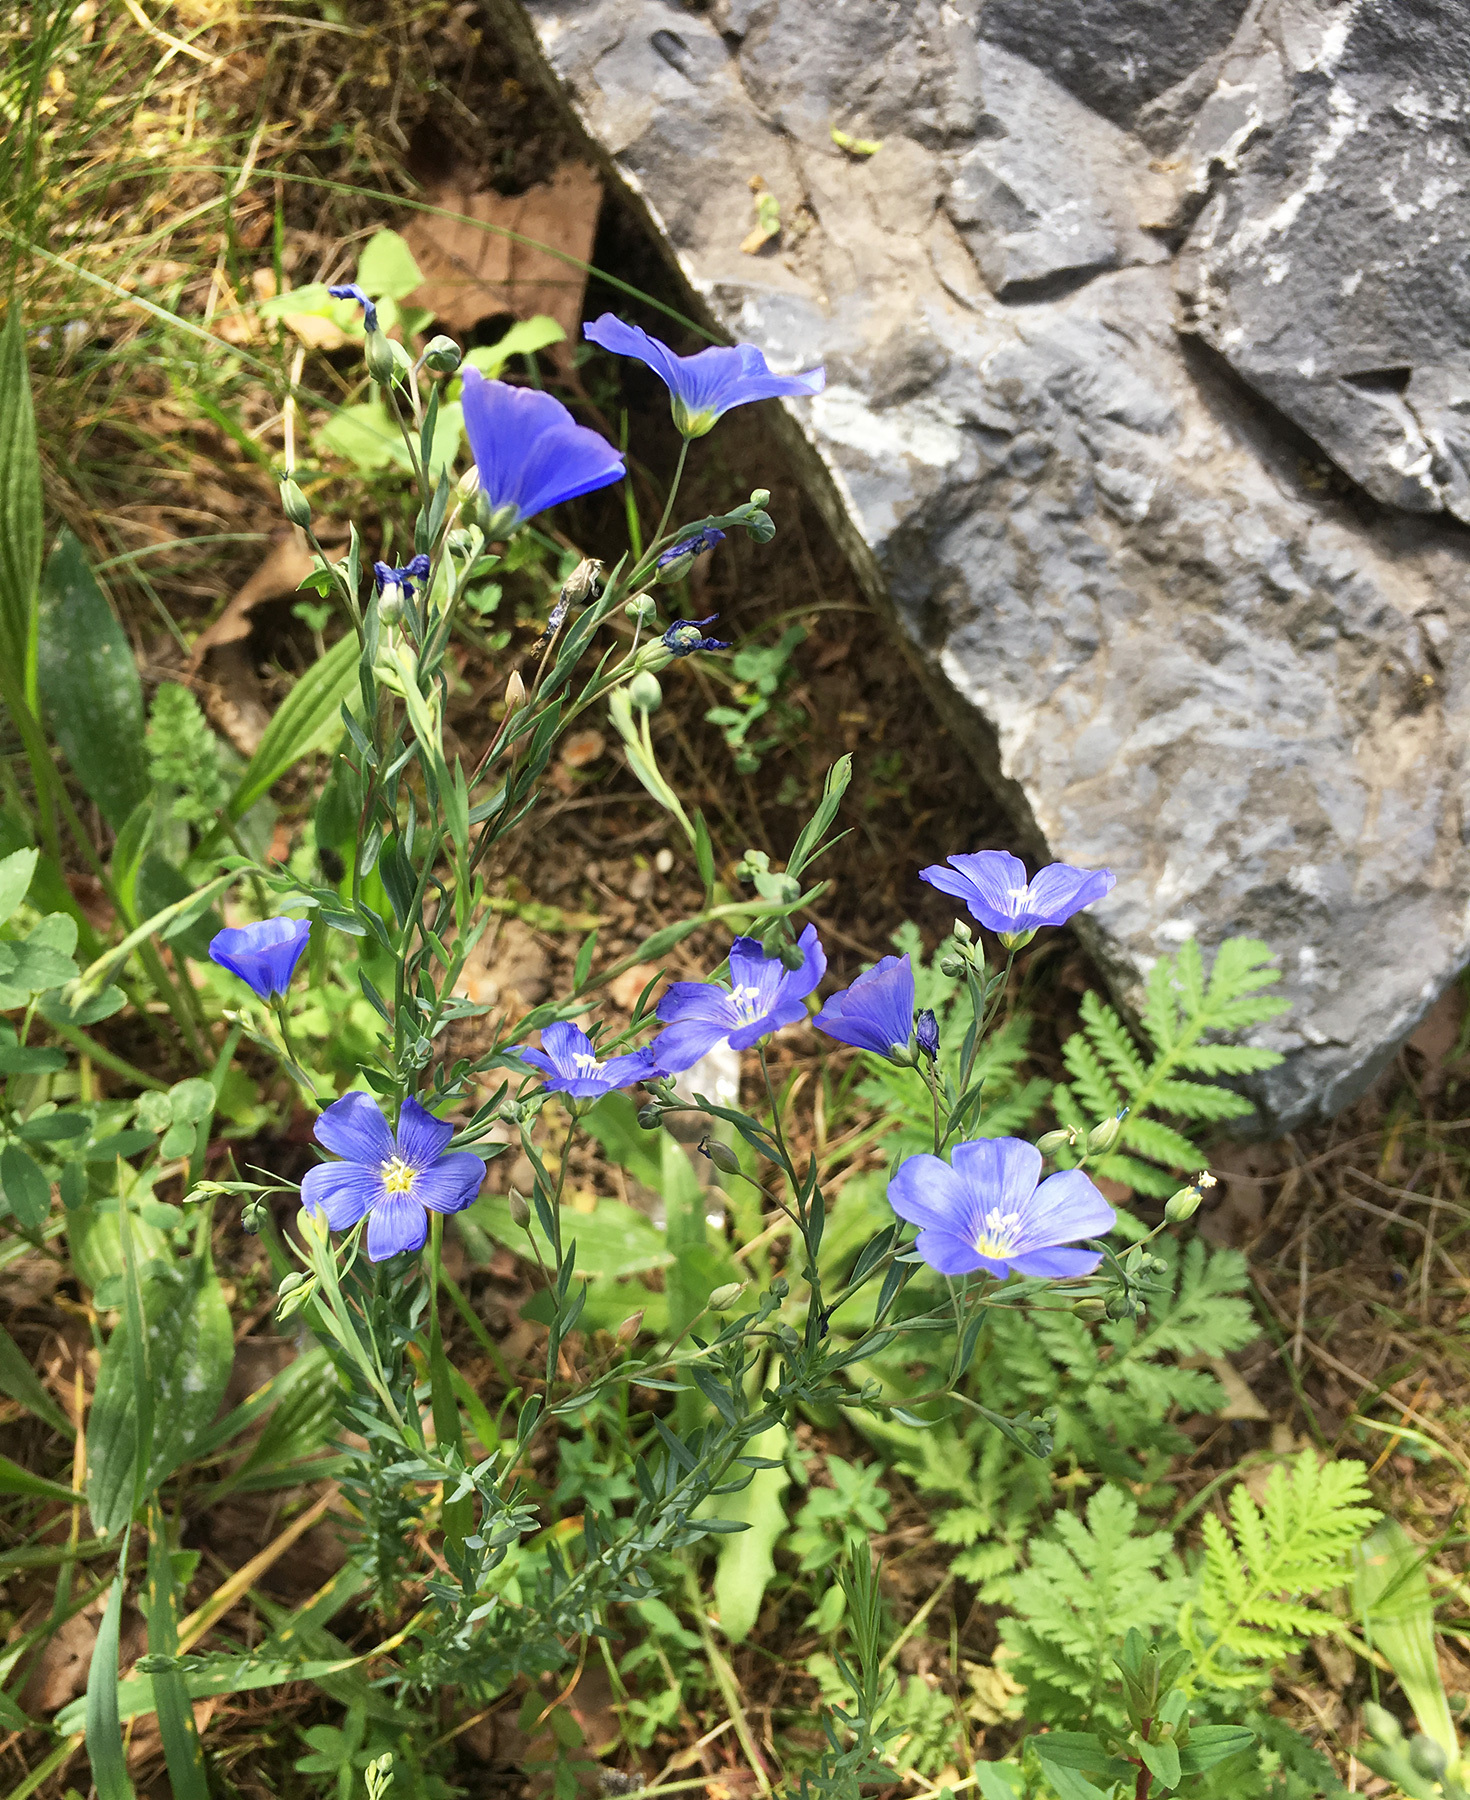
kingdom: Plantae
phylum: Tracheophyta
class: Magnoliopsida
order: Malpighiales
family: Linaceae
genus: Linum
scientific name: Linum perenne
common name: Blue flax
